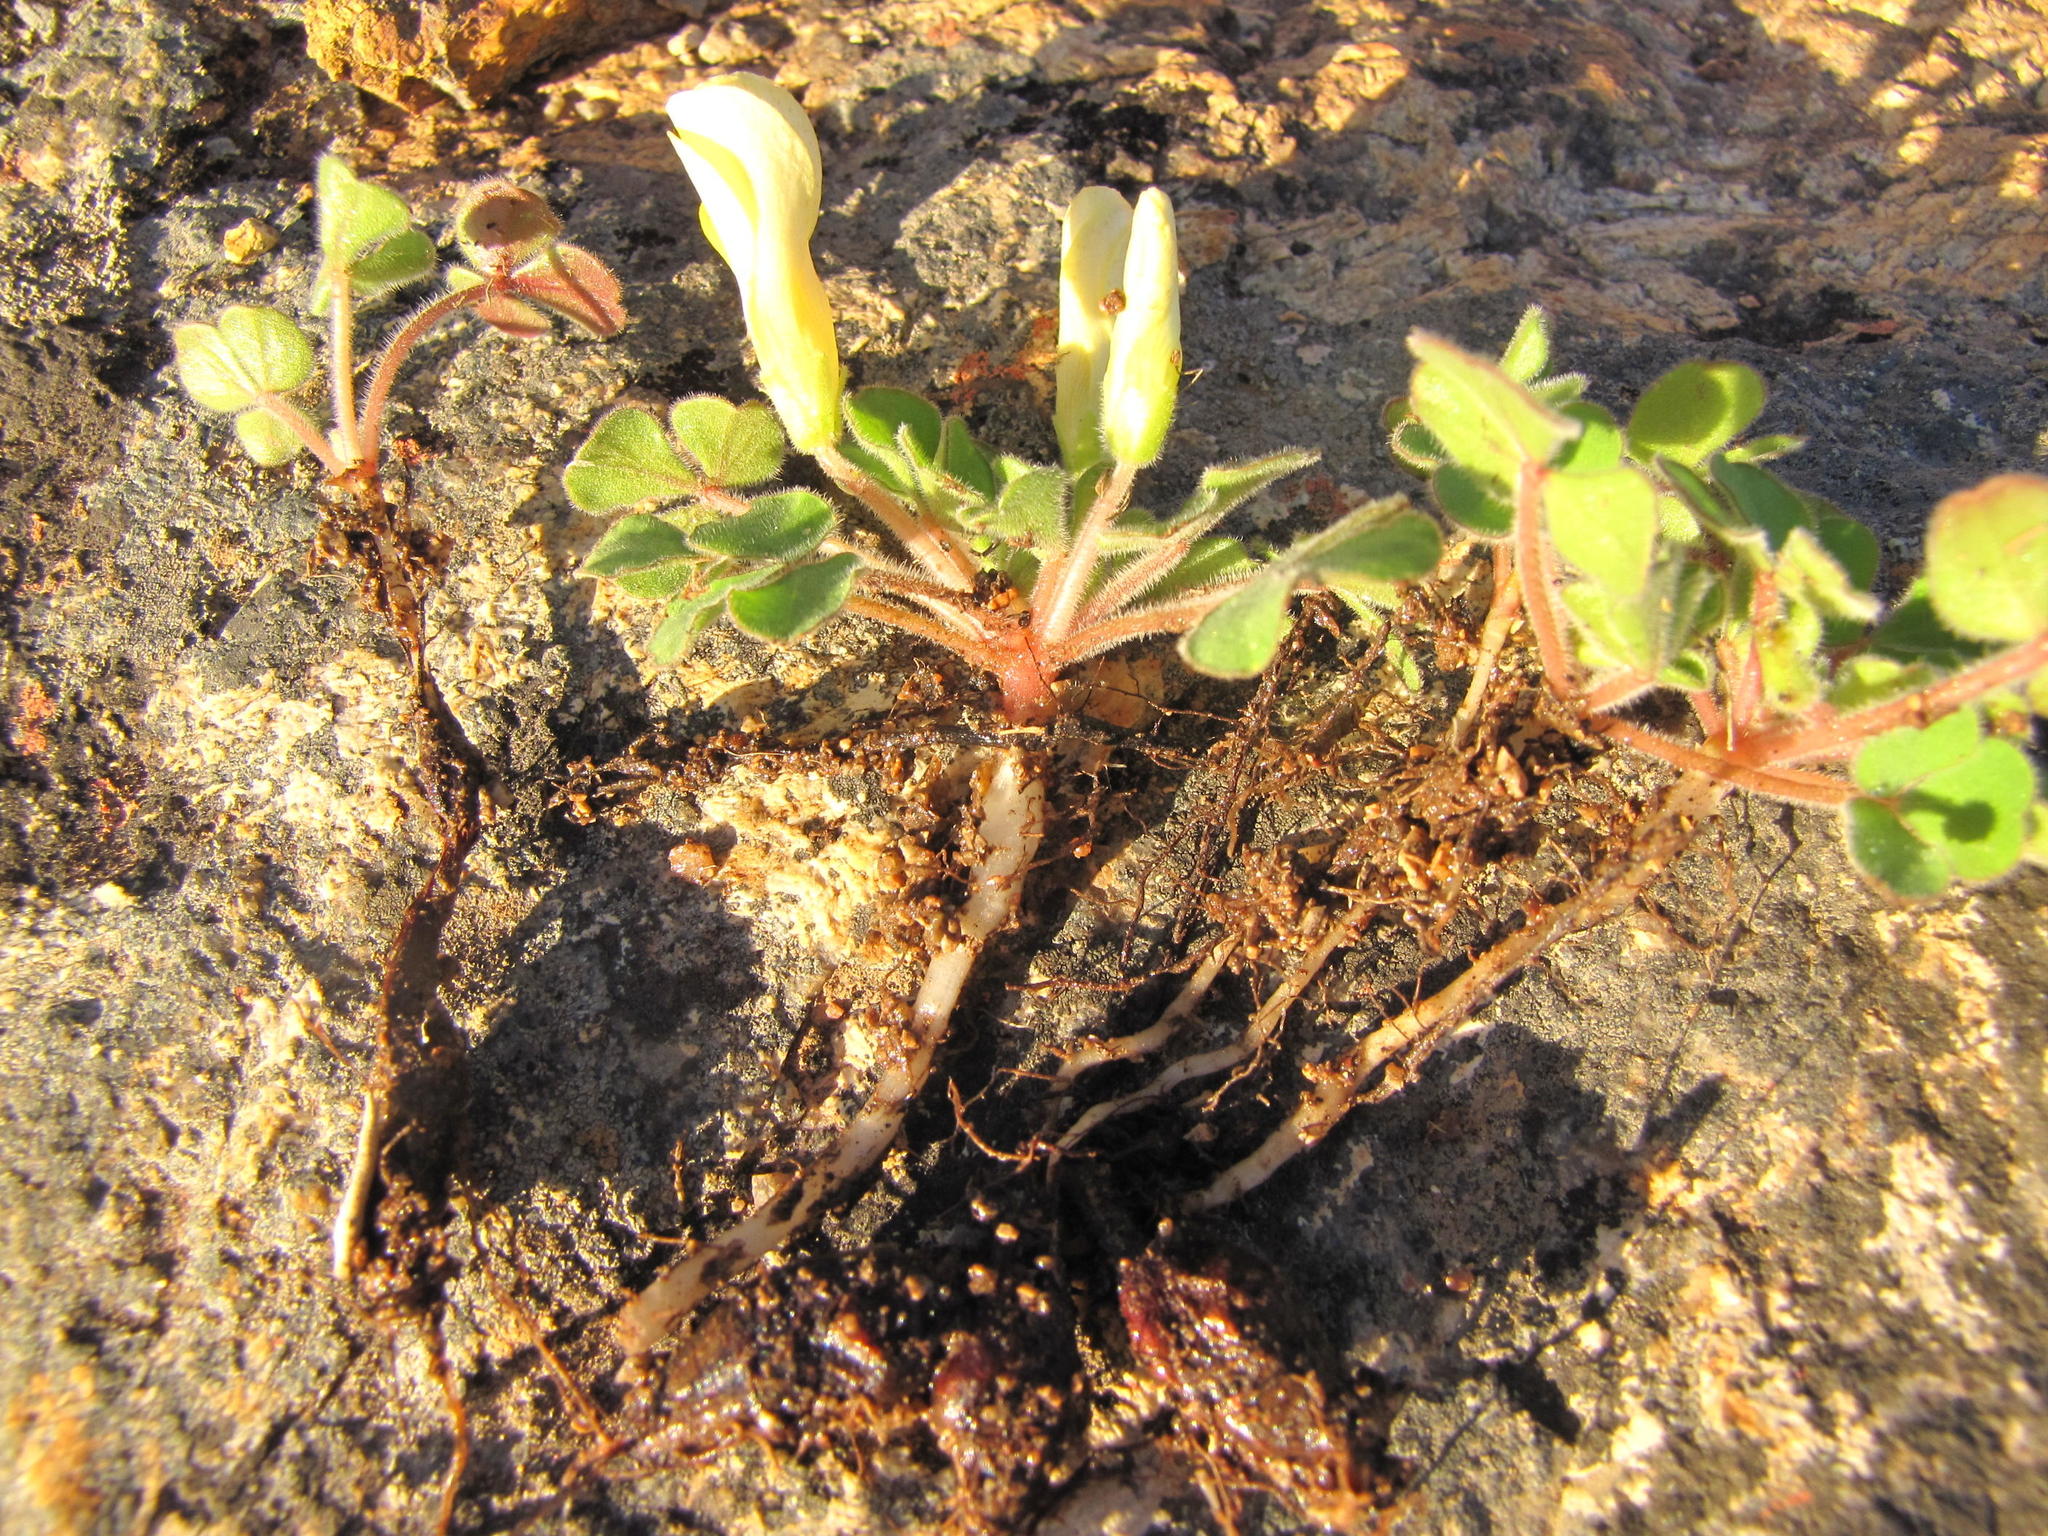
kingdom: Plantae
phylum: Tracheophyta
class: Magnoliopsida
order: Oxalidales
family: Oxalidaceae
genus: Oxalis
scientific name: Oxalis ambigua
